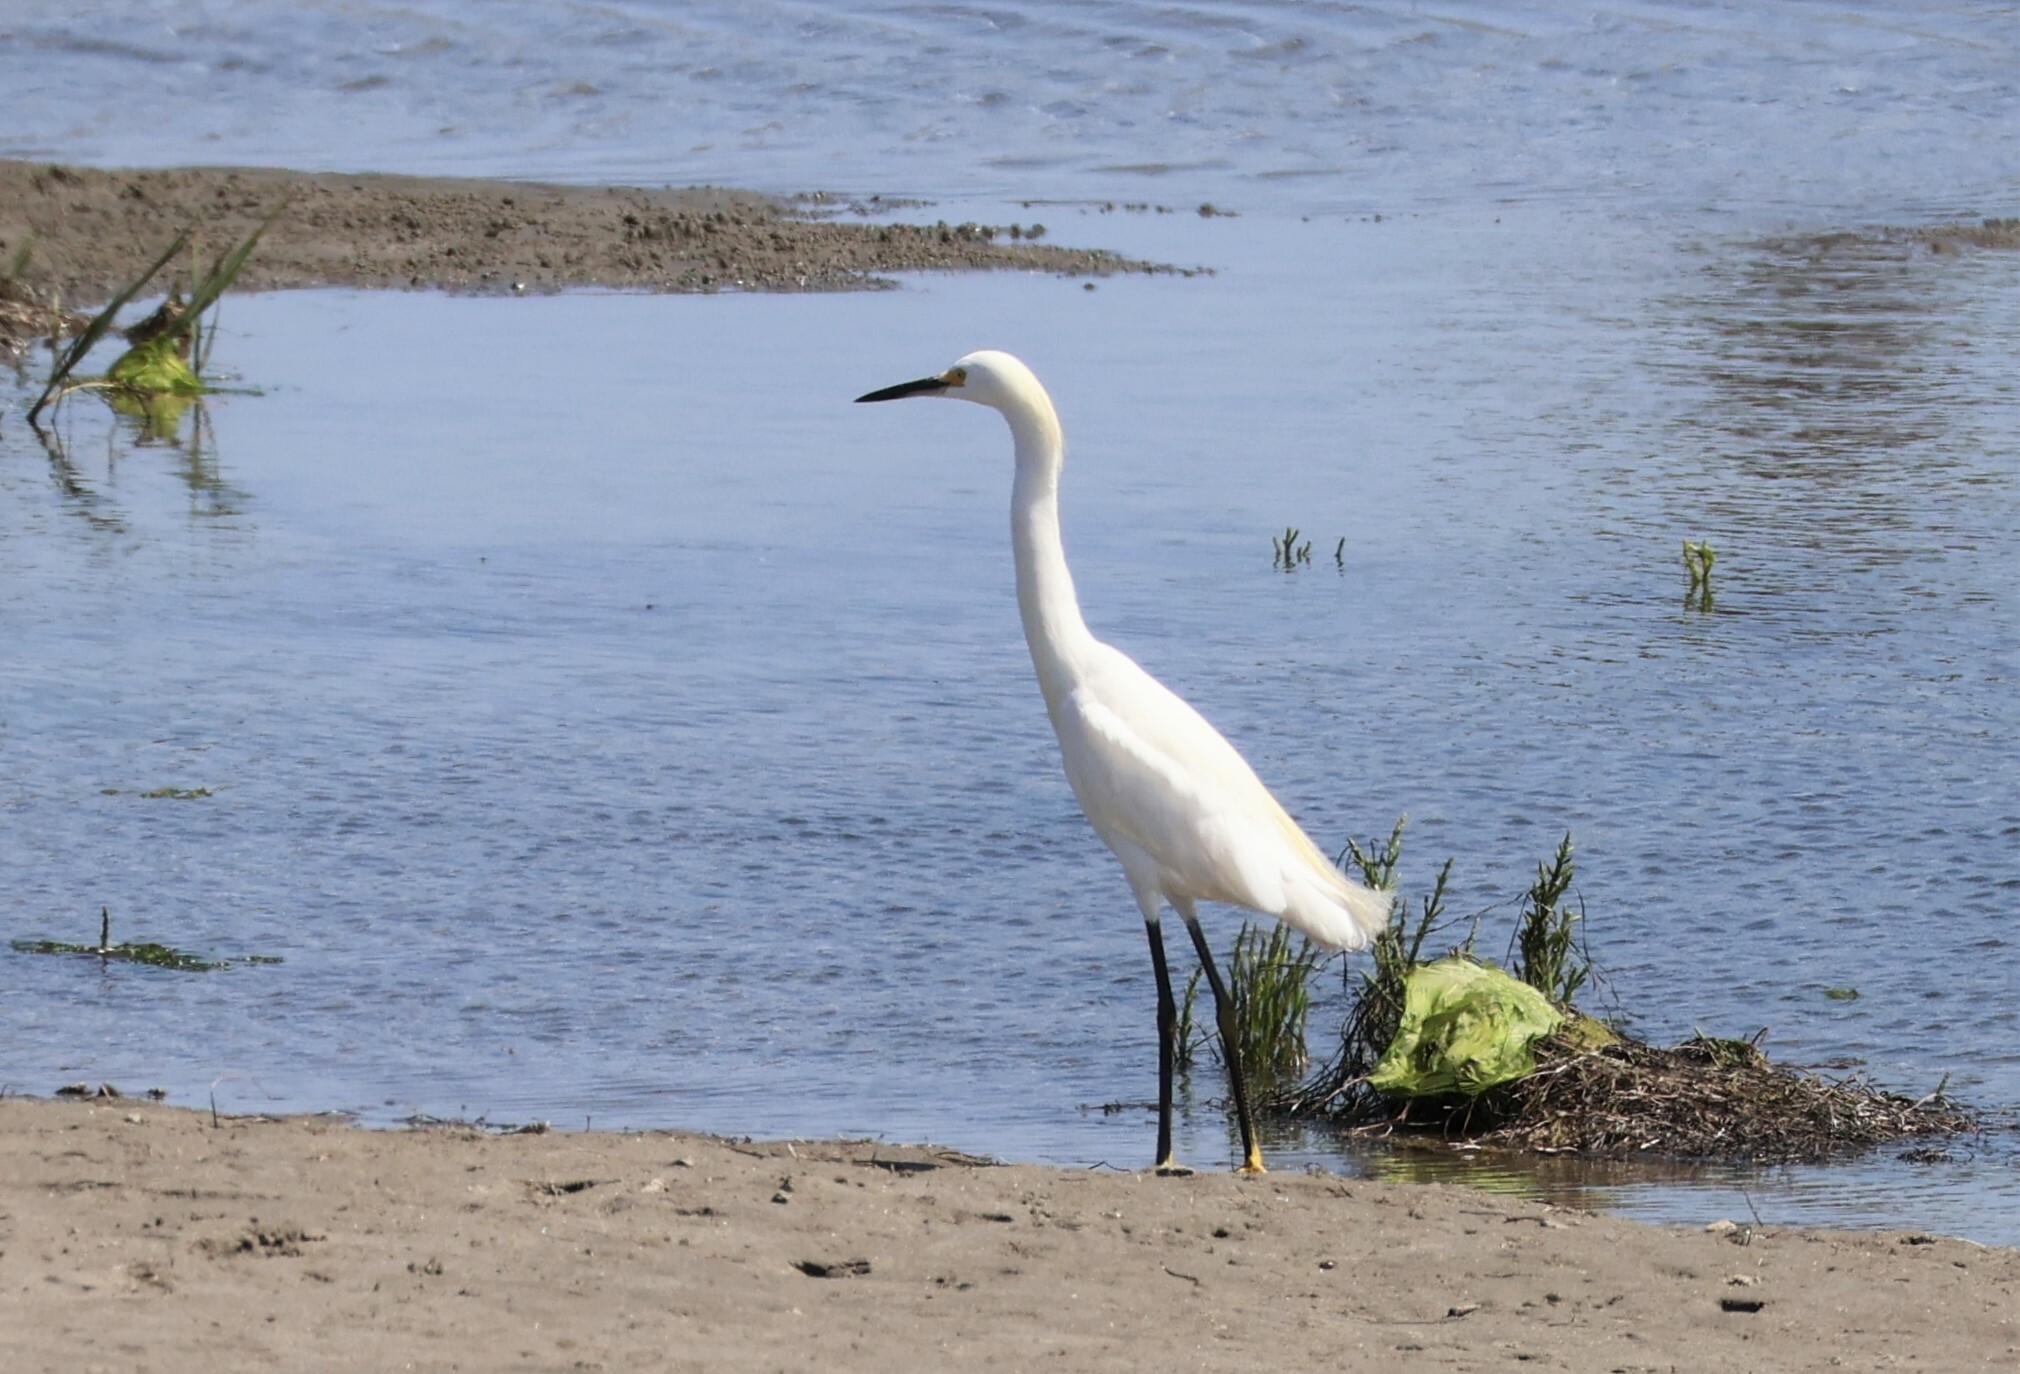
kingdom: Animalia
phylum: Chordata
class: Aves
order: Pelecaniformes
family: Ardeidae
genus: Egretta
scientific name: Egretta thula
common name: Snowy egret
